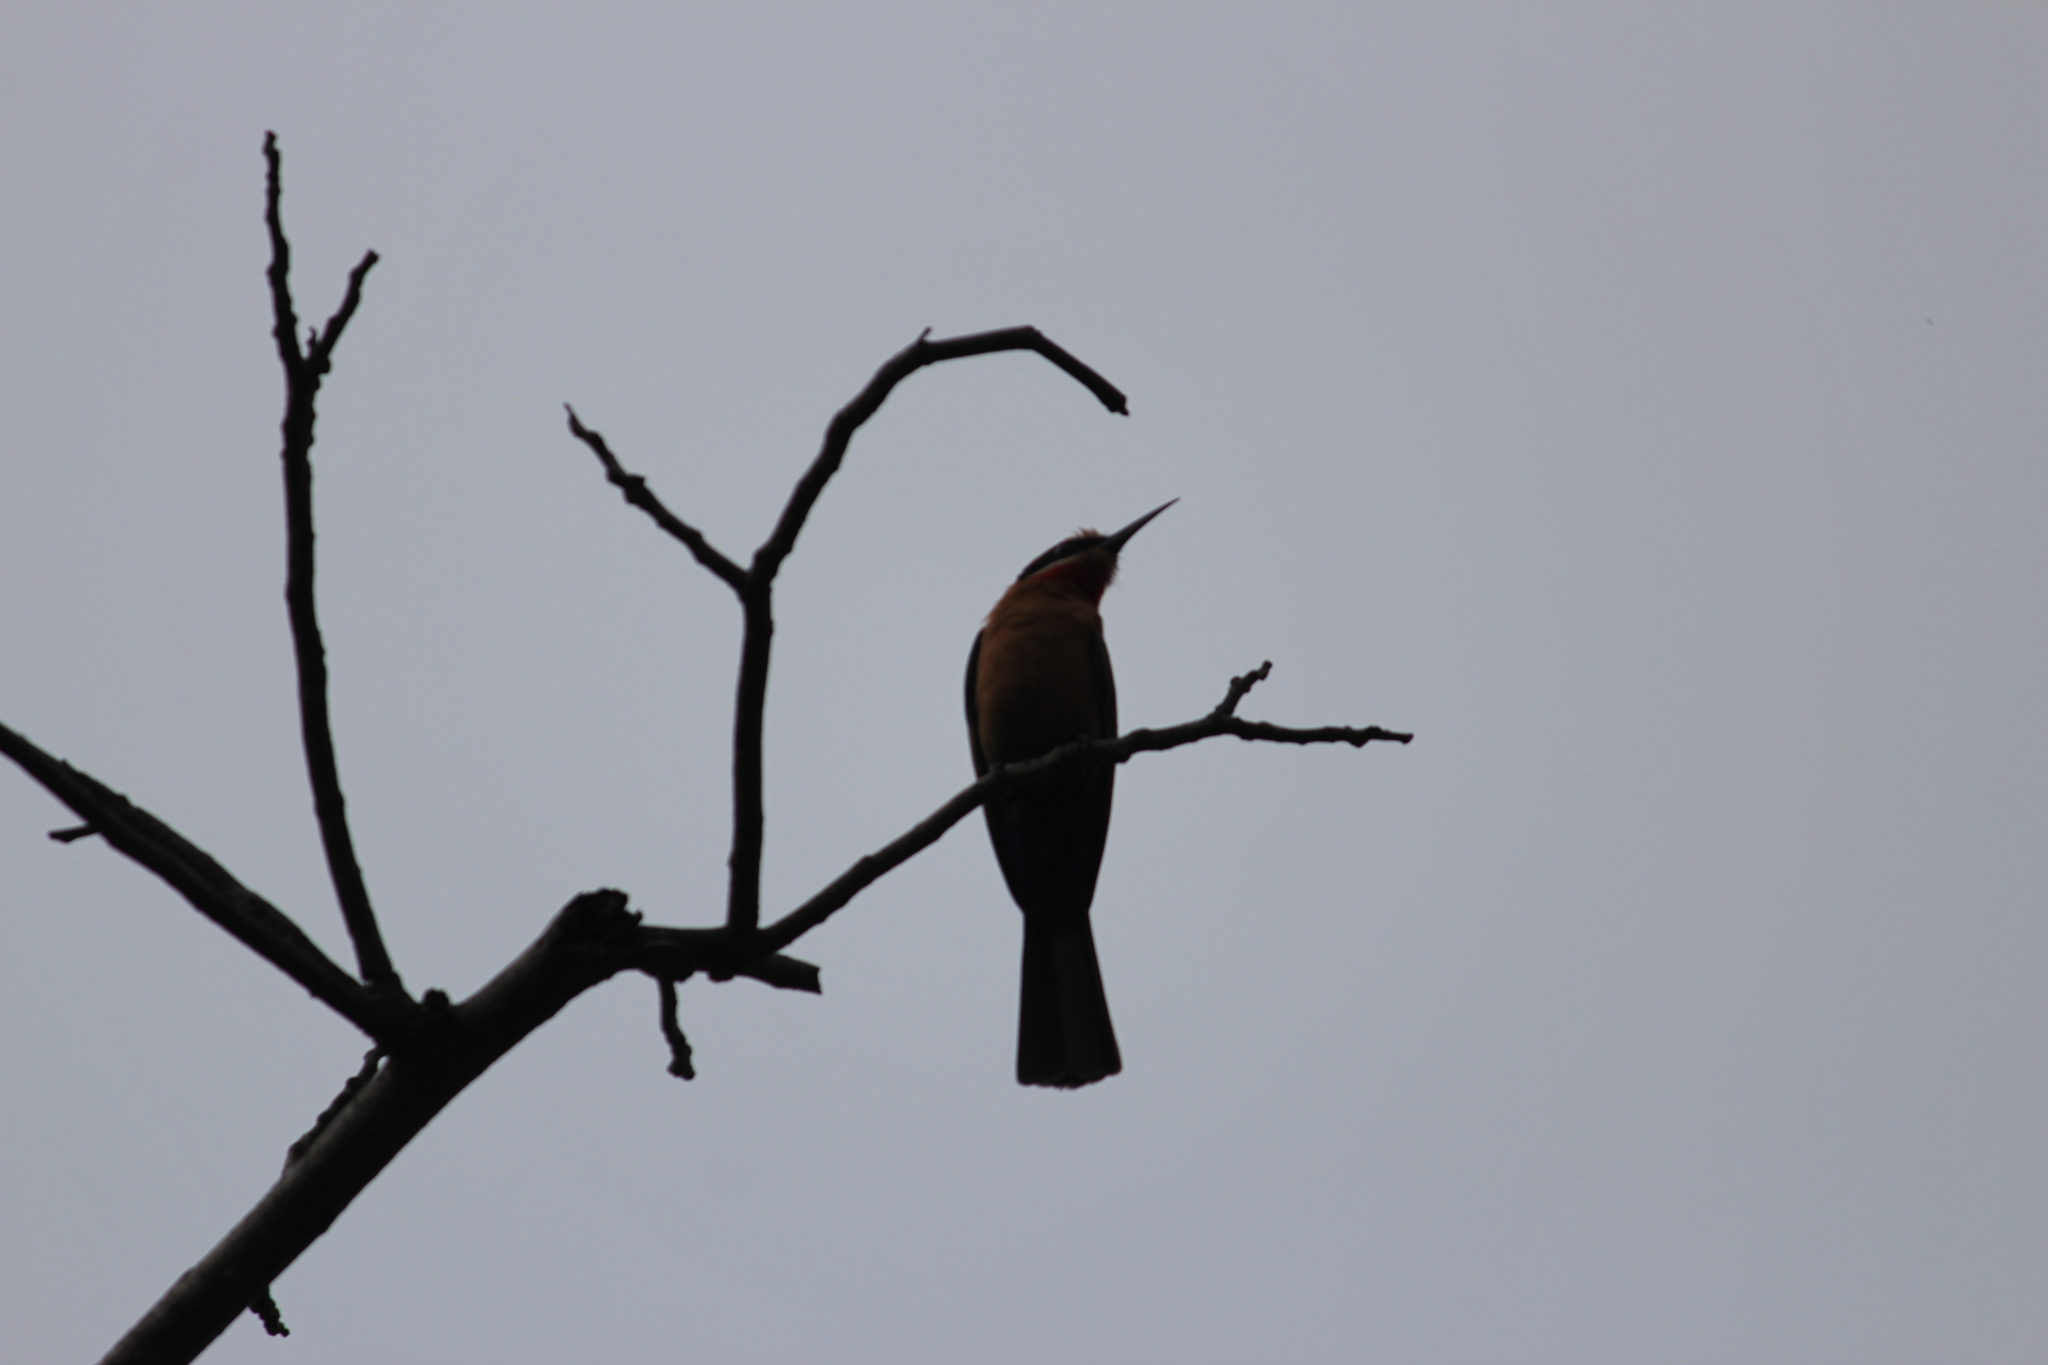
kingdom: Animalia
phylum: Chordata
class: Aves
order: Coraciiformes
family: Meropidae
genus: Merops
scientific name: Merops bullockoides
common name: White-fronted bee-eater
